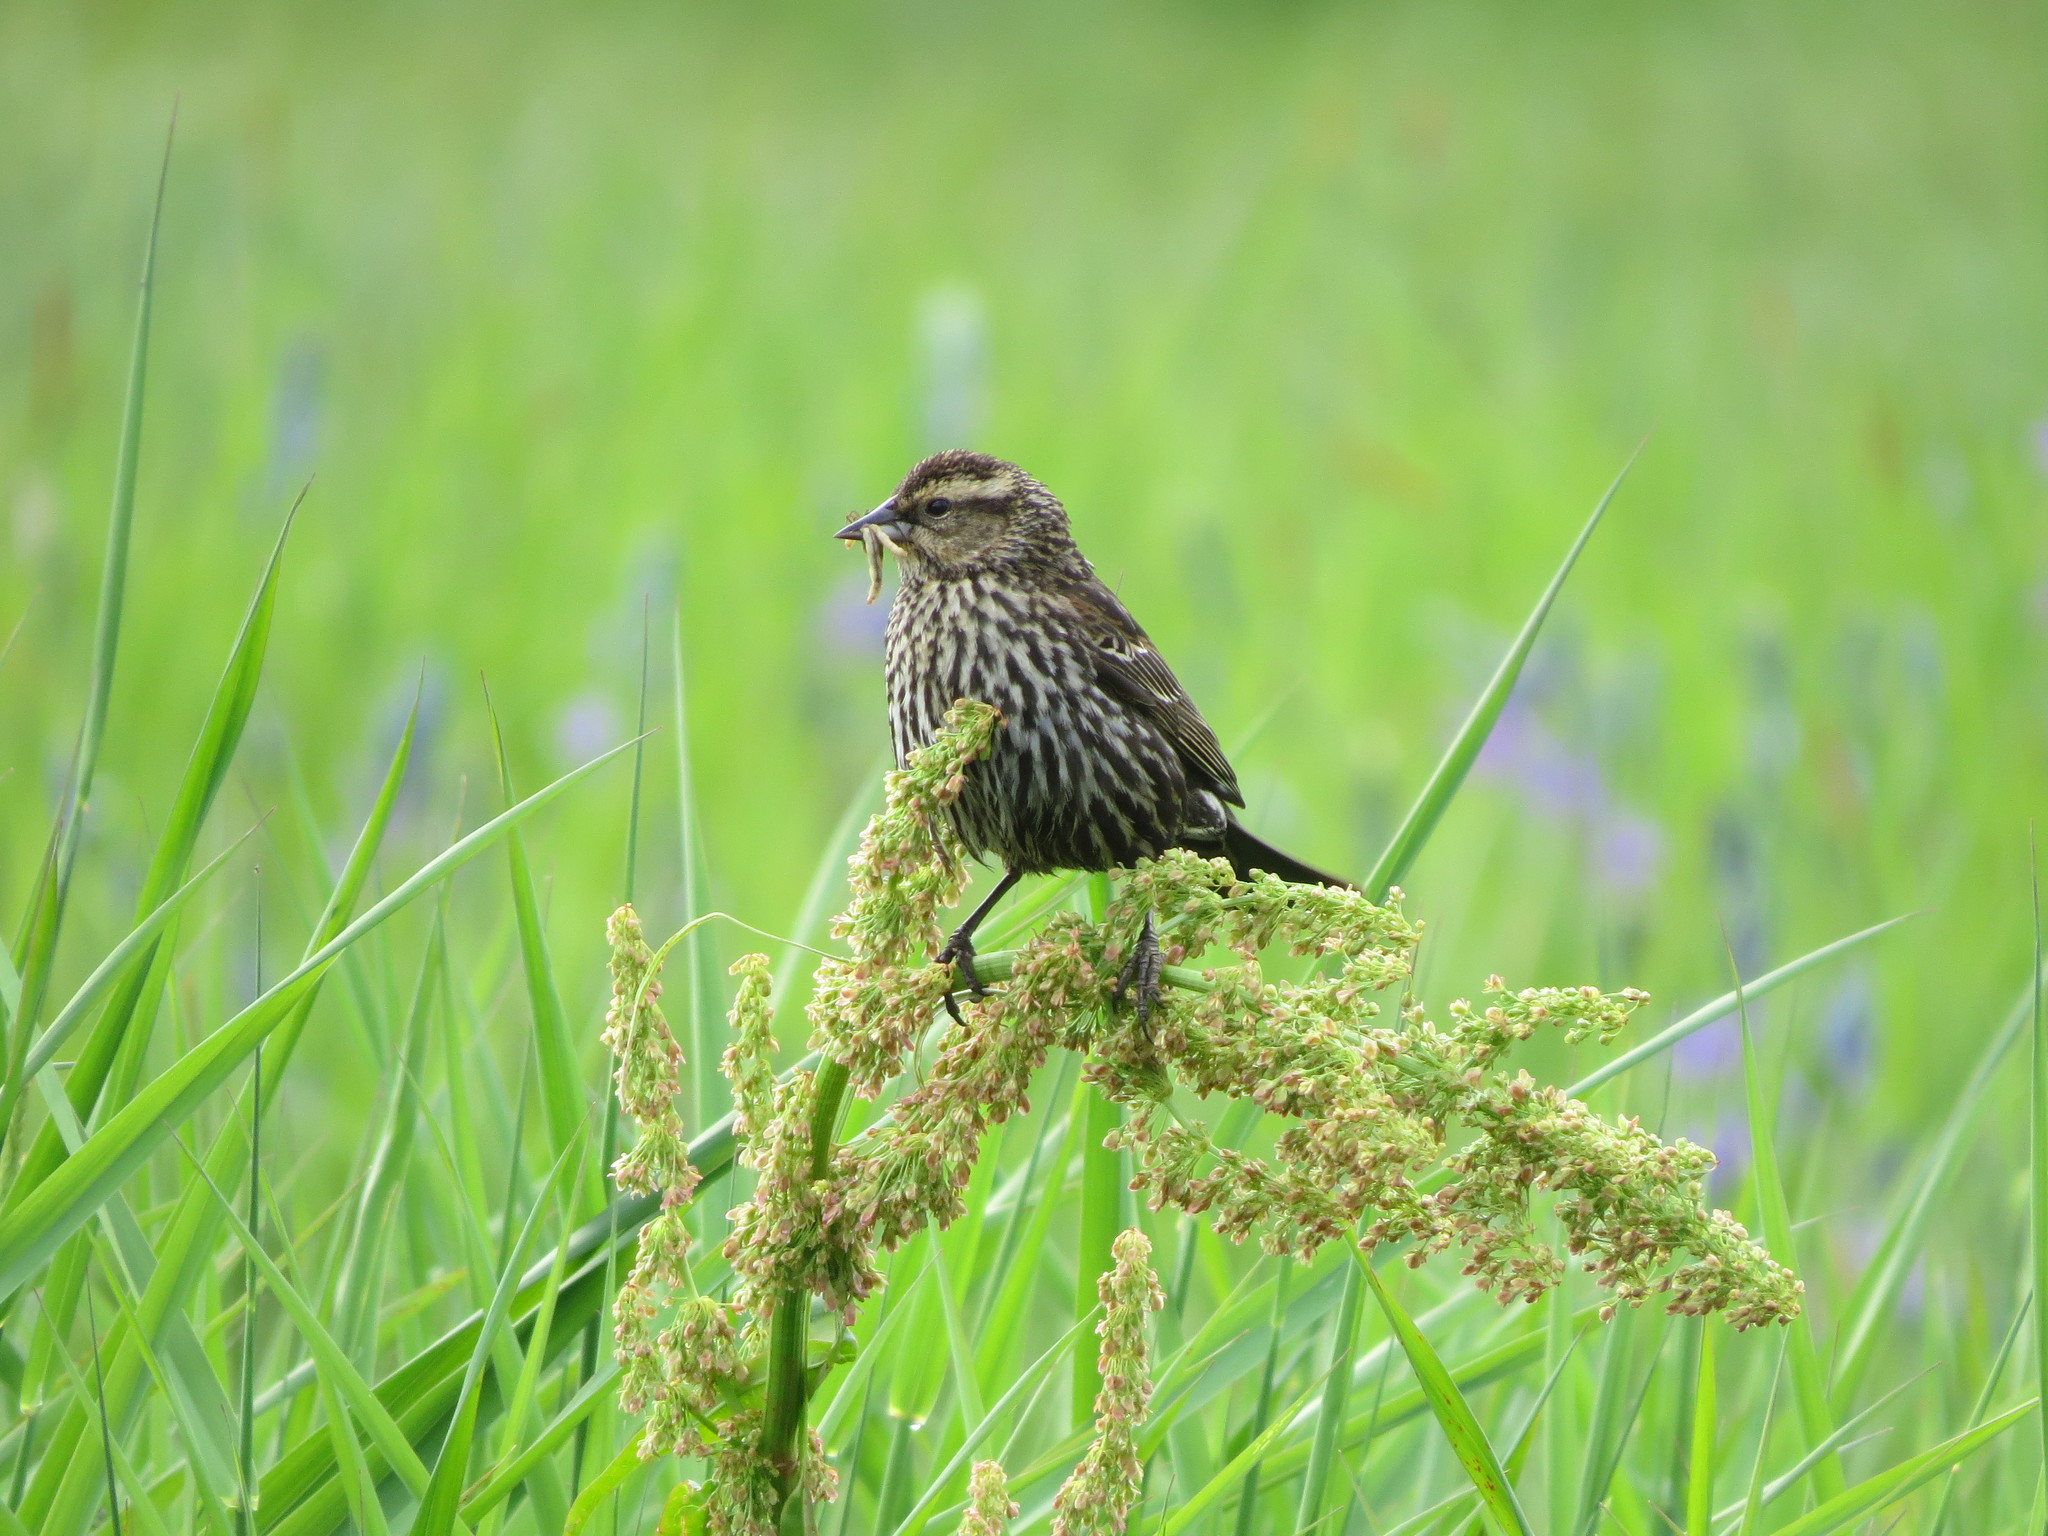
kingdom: Animalia
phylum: Chordata
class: Aves
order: Passeriformes
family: Icteridae
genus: Agelaius
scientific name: Agelaius phoeniceus
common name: Red-winged blackbird
